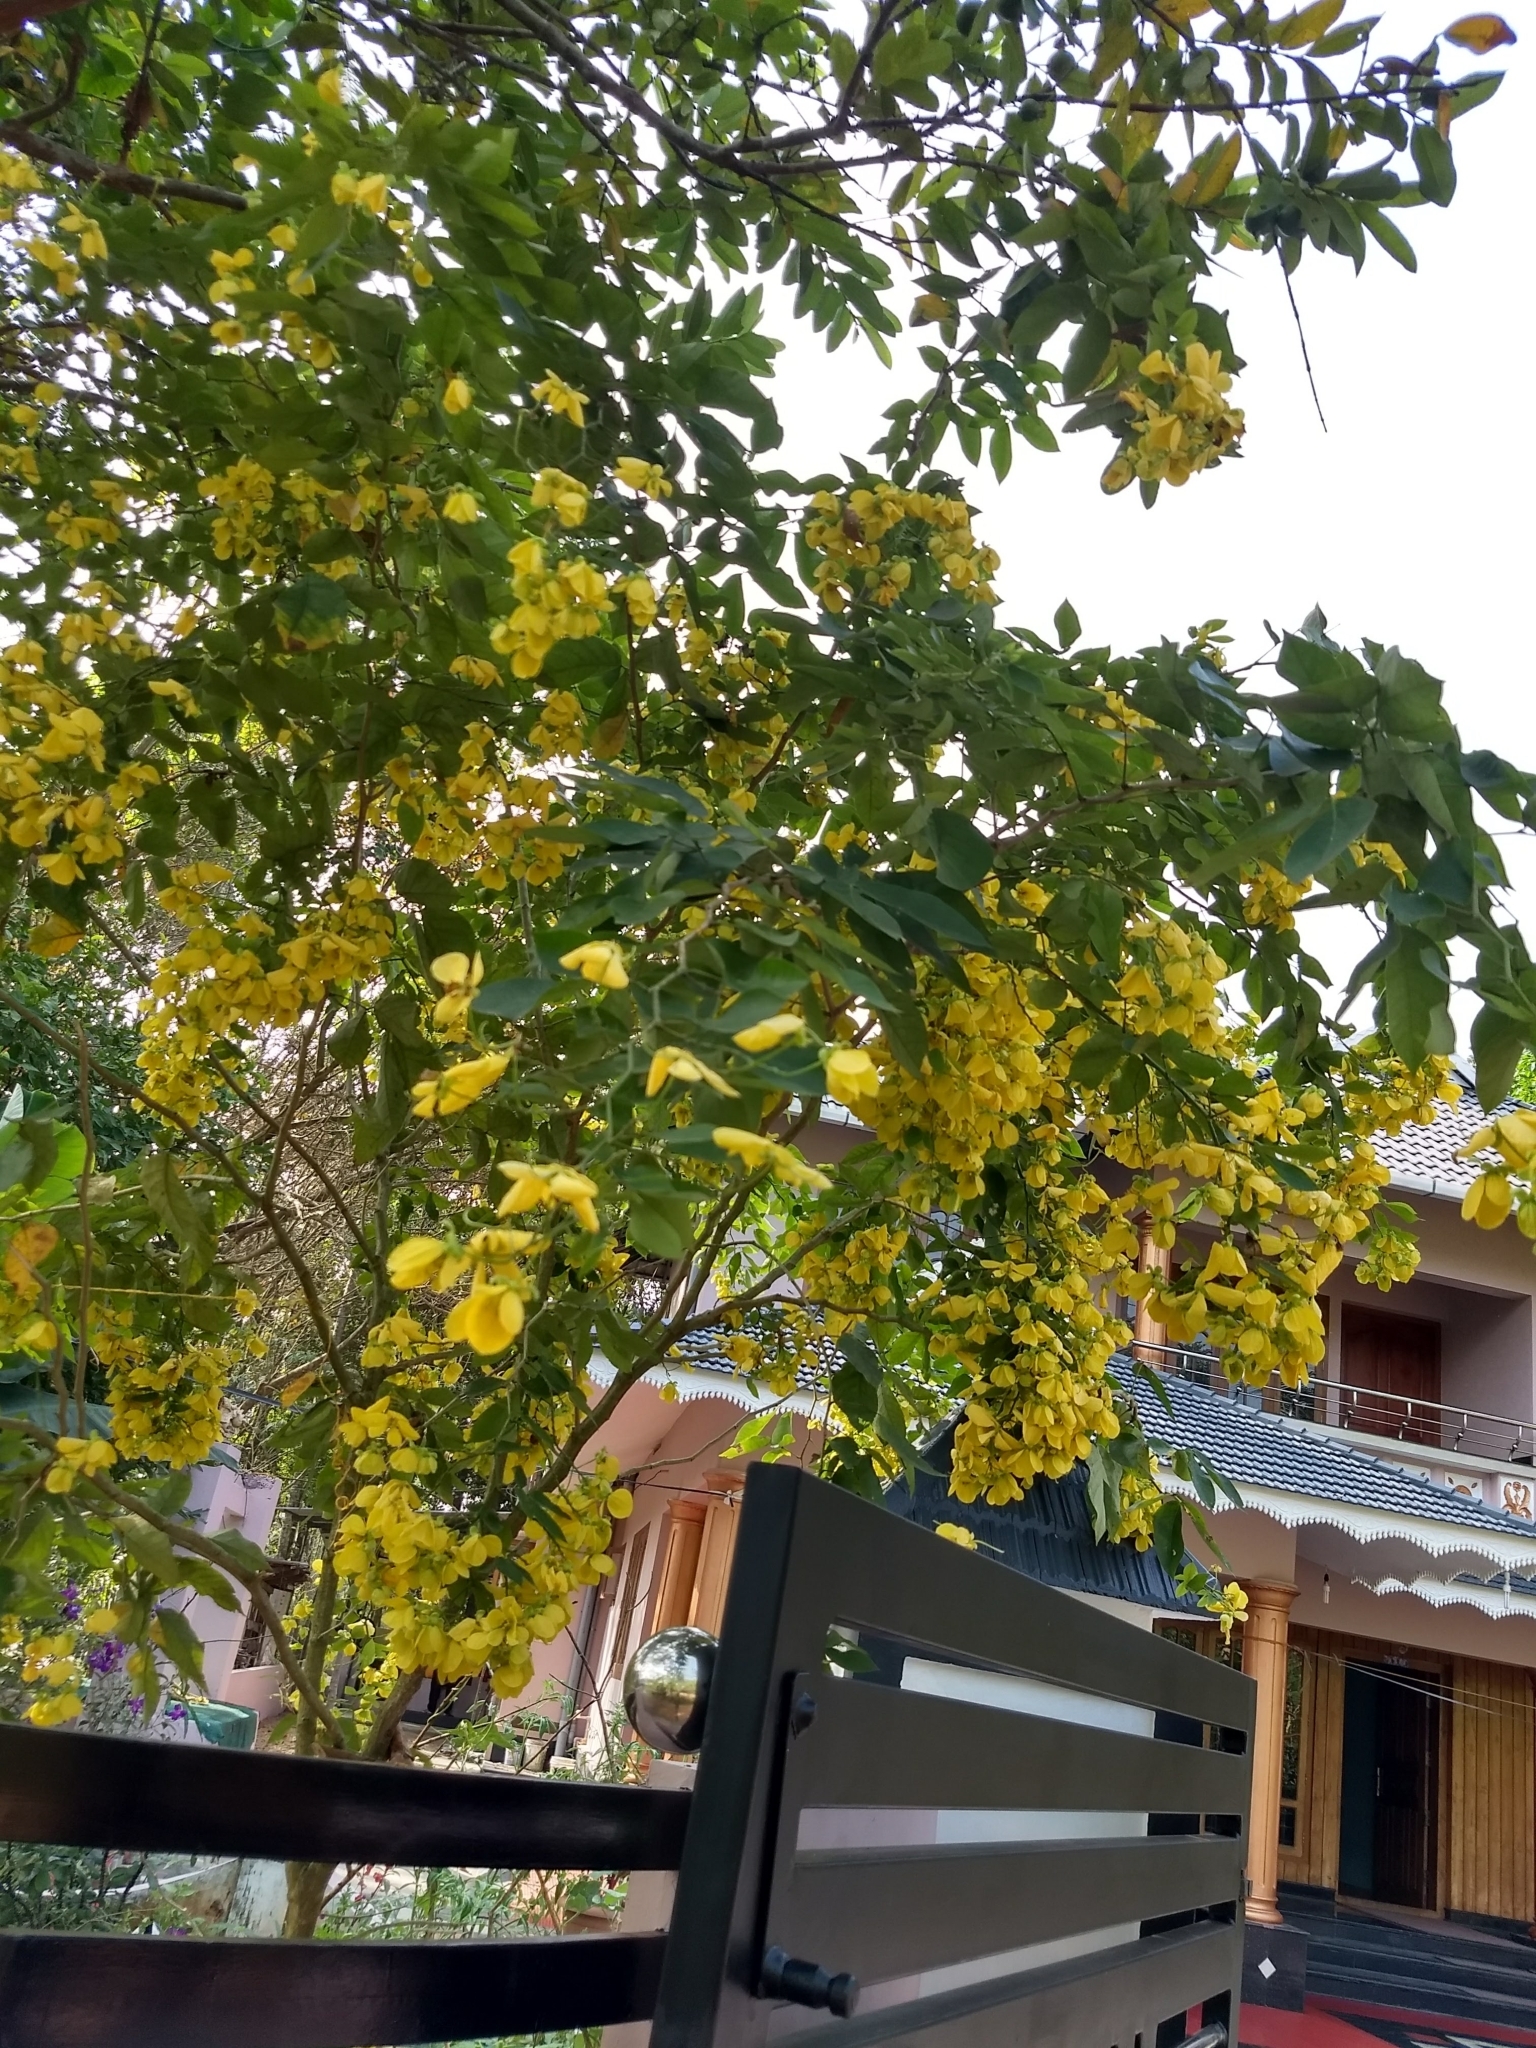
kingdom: Plantae
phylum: Tracheophyta
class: Magnoliopsida
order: Fabales
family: Fabaceae
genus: Cassia
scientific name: Cassia fistula
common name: Golden shower
